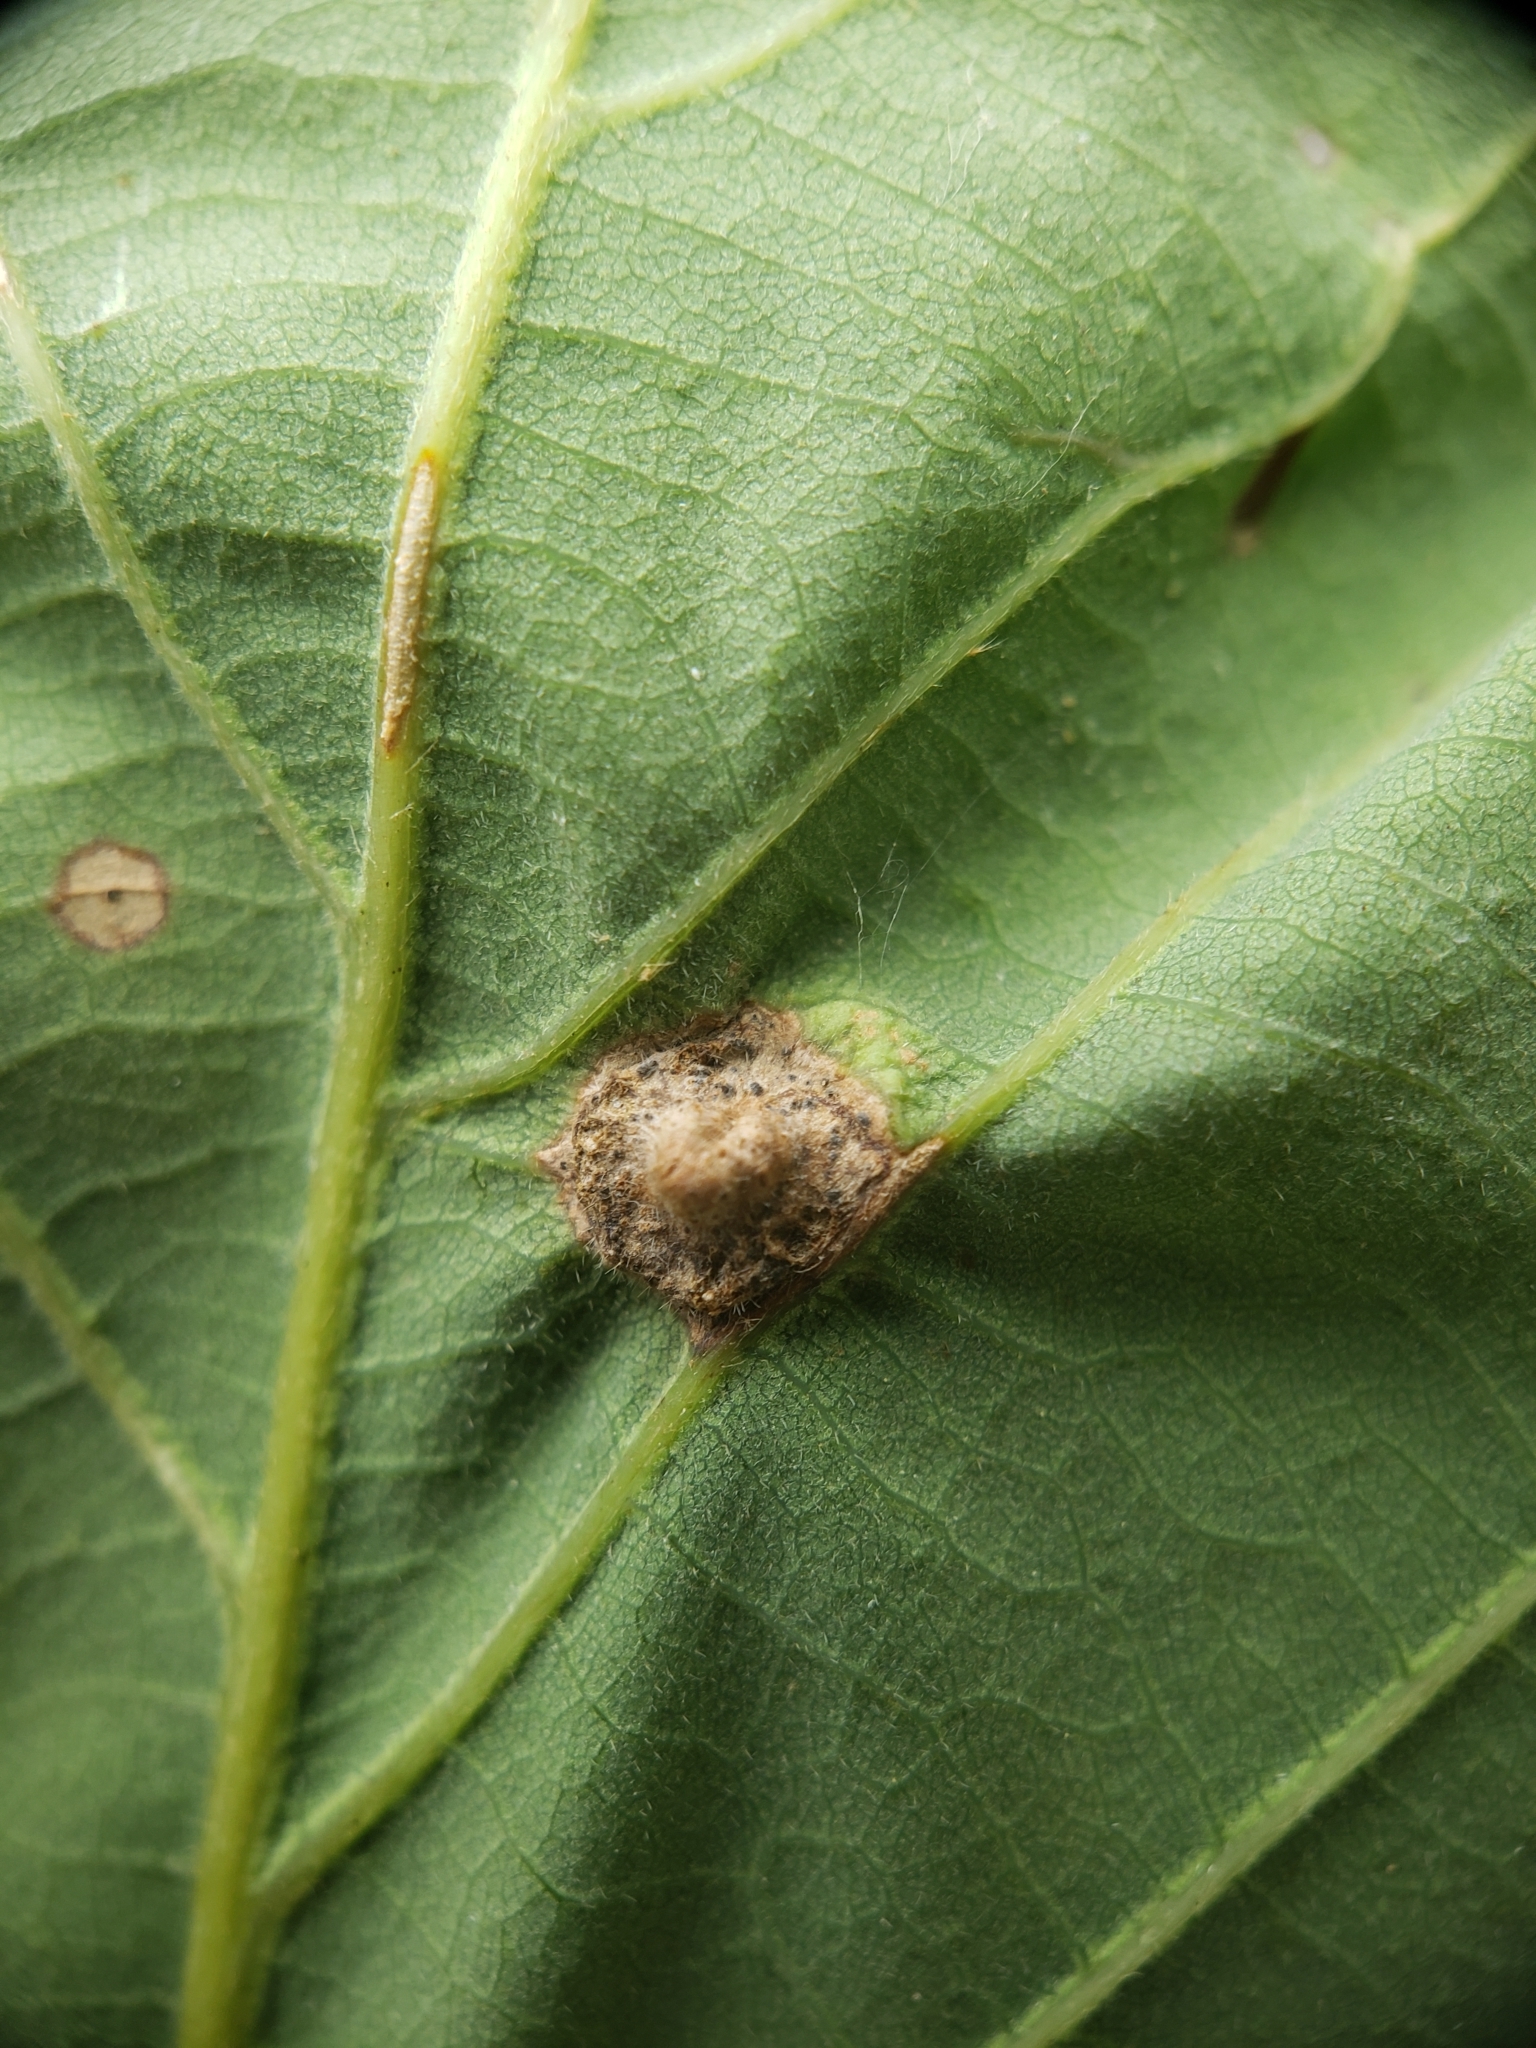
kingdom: Animalia
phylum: Arthropoda
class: Insecta
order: Hymenoptera
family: Cynipidae
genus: Callirhytis
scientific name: Callirhytis
